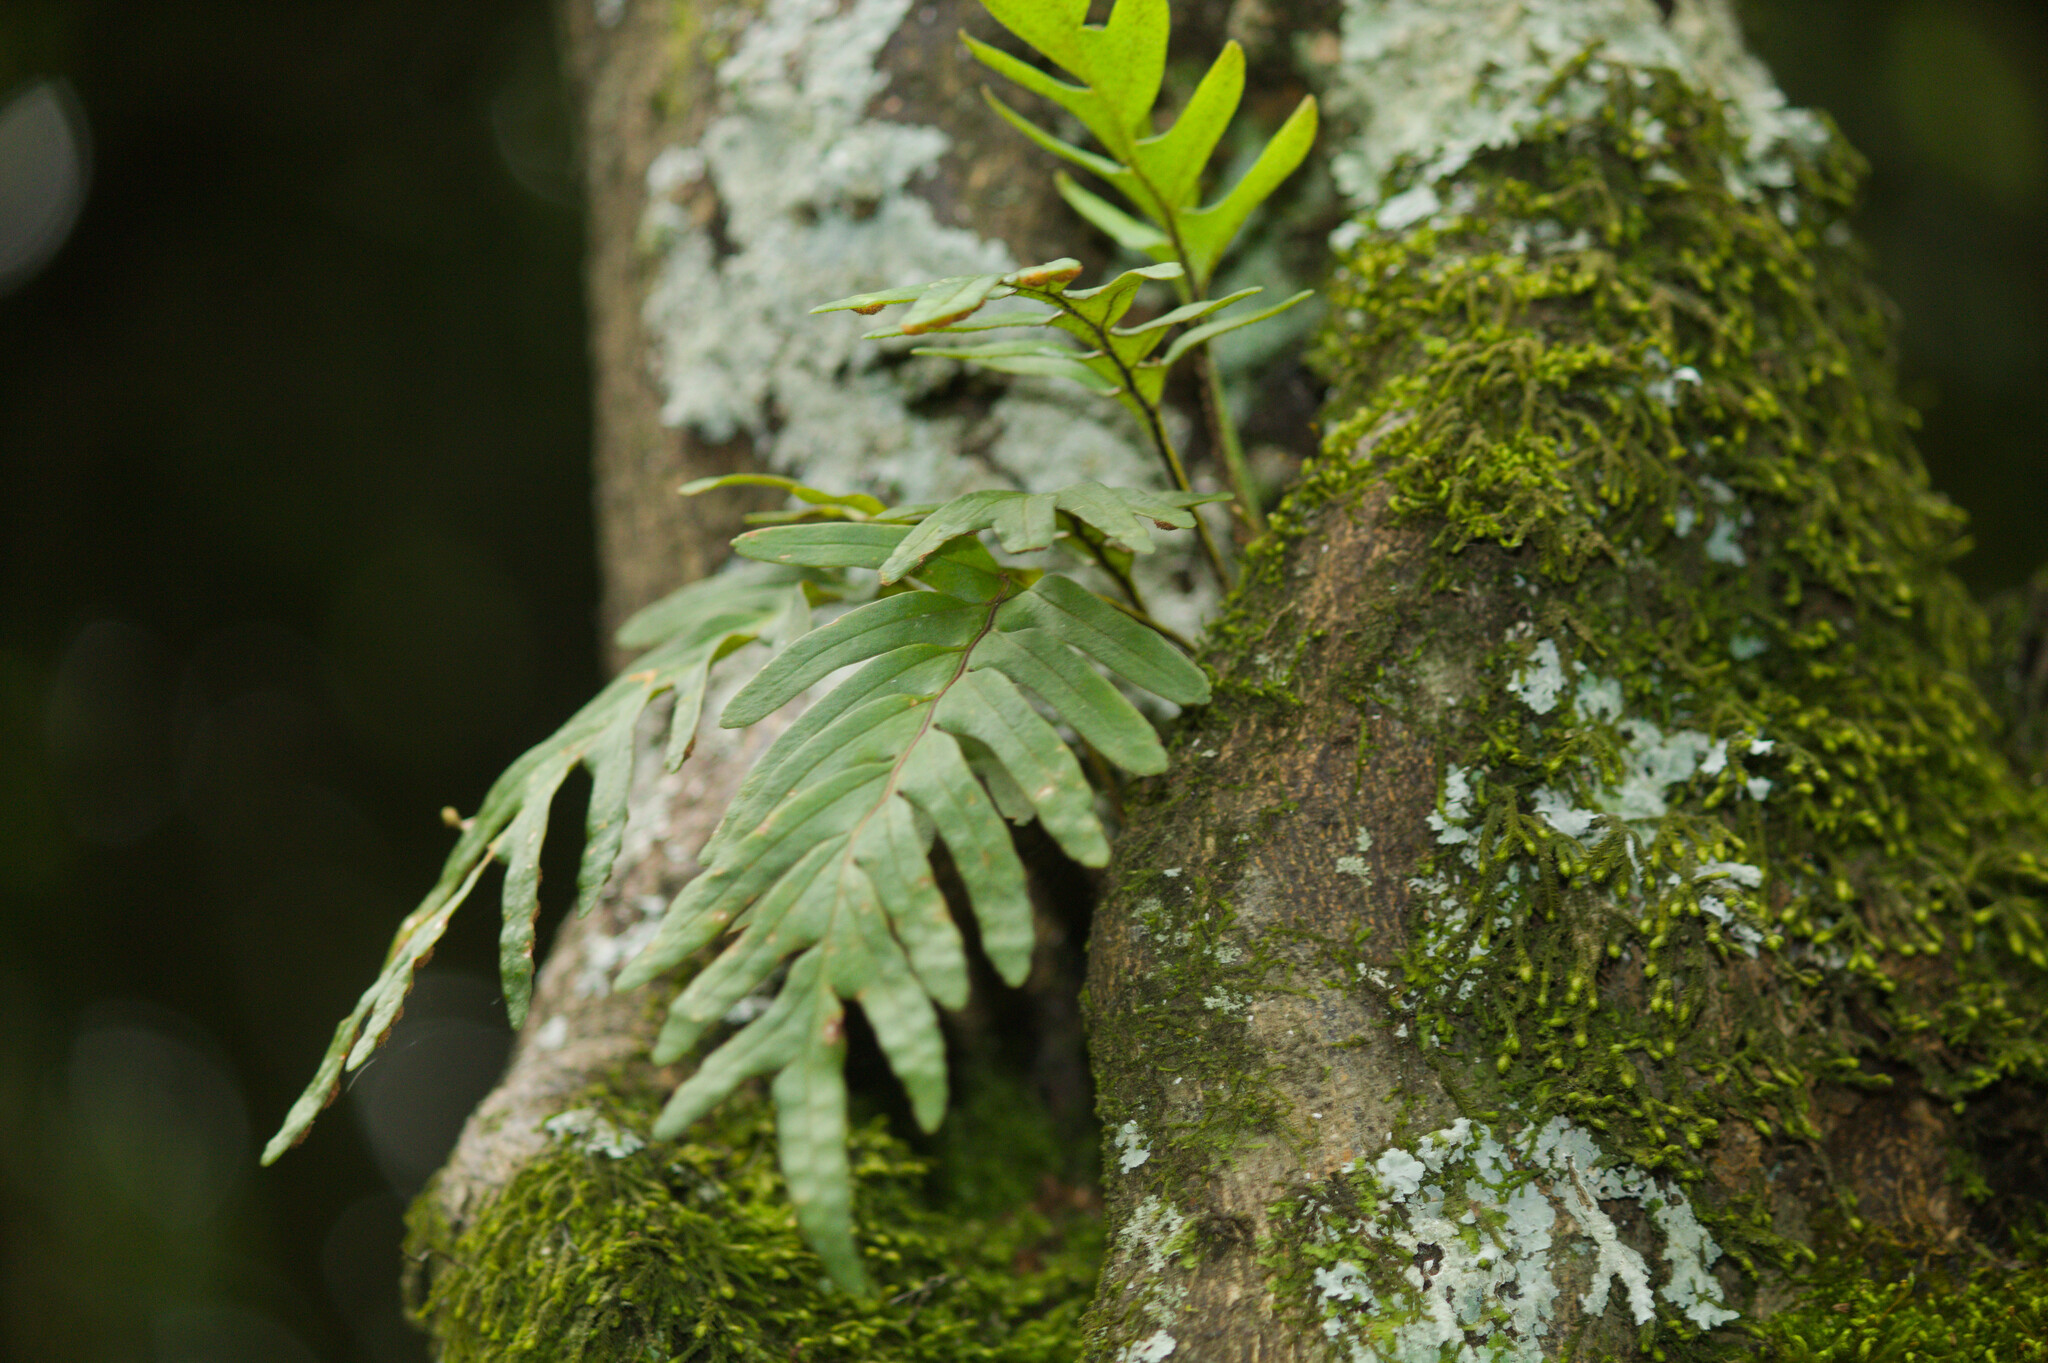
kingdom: Plantae
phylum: Tracheophyta
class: Polypodiopsida
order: Polypodiales
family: Polypodiaceae
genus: Pleopeltis
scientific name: Pleopeltis pleopeltifolia
